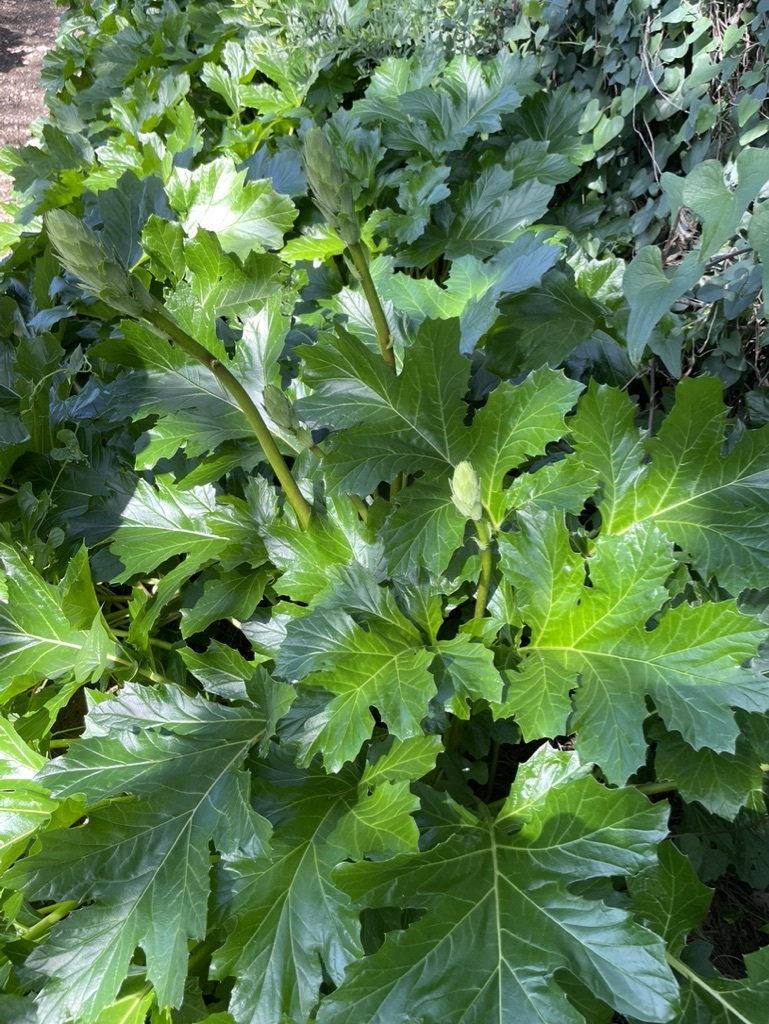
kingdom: Plantae
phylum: Tracheophyta
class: Magnoliopsida
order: Lamiales
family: Acanthaceae
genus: Acanthus
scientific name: Acanthus mollis
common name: Bear's-breech
